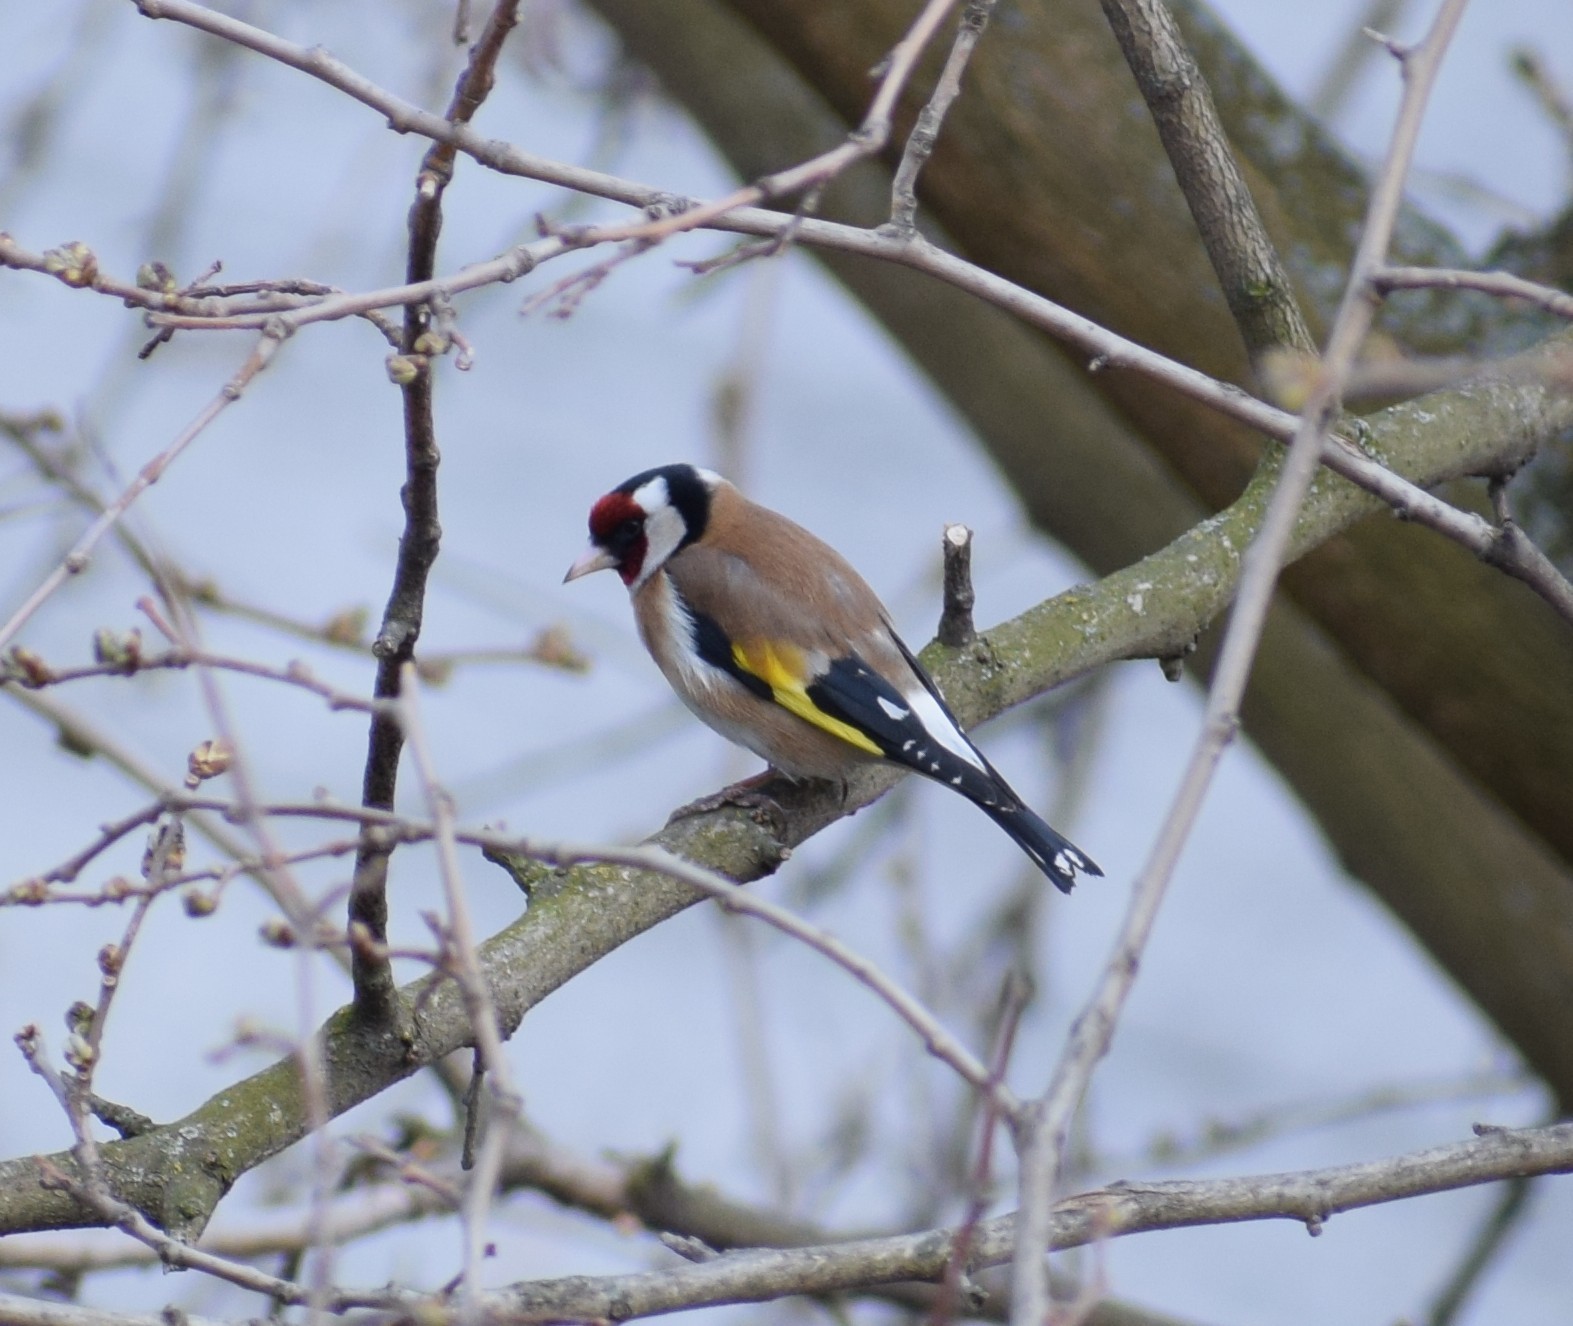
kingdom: Animalia
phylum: Chordata
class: Aves
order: Passeriformes
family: Fringillidae
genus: Carduelis
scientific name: Carduelis carduelis
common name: European goldfinch
